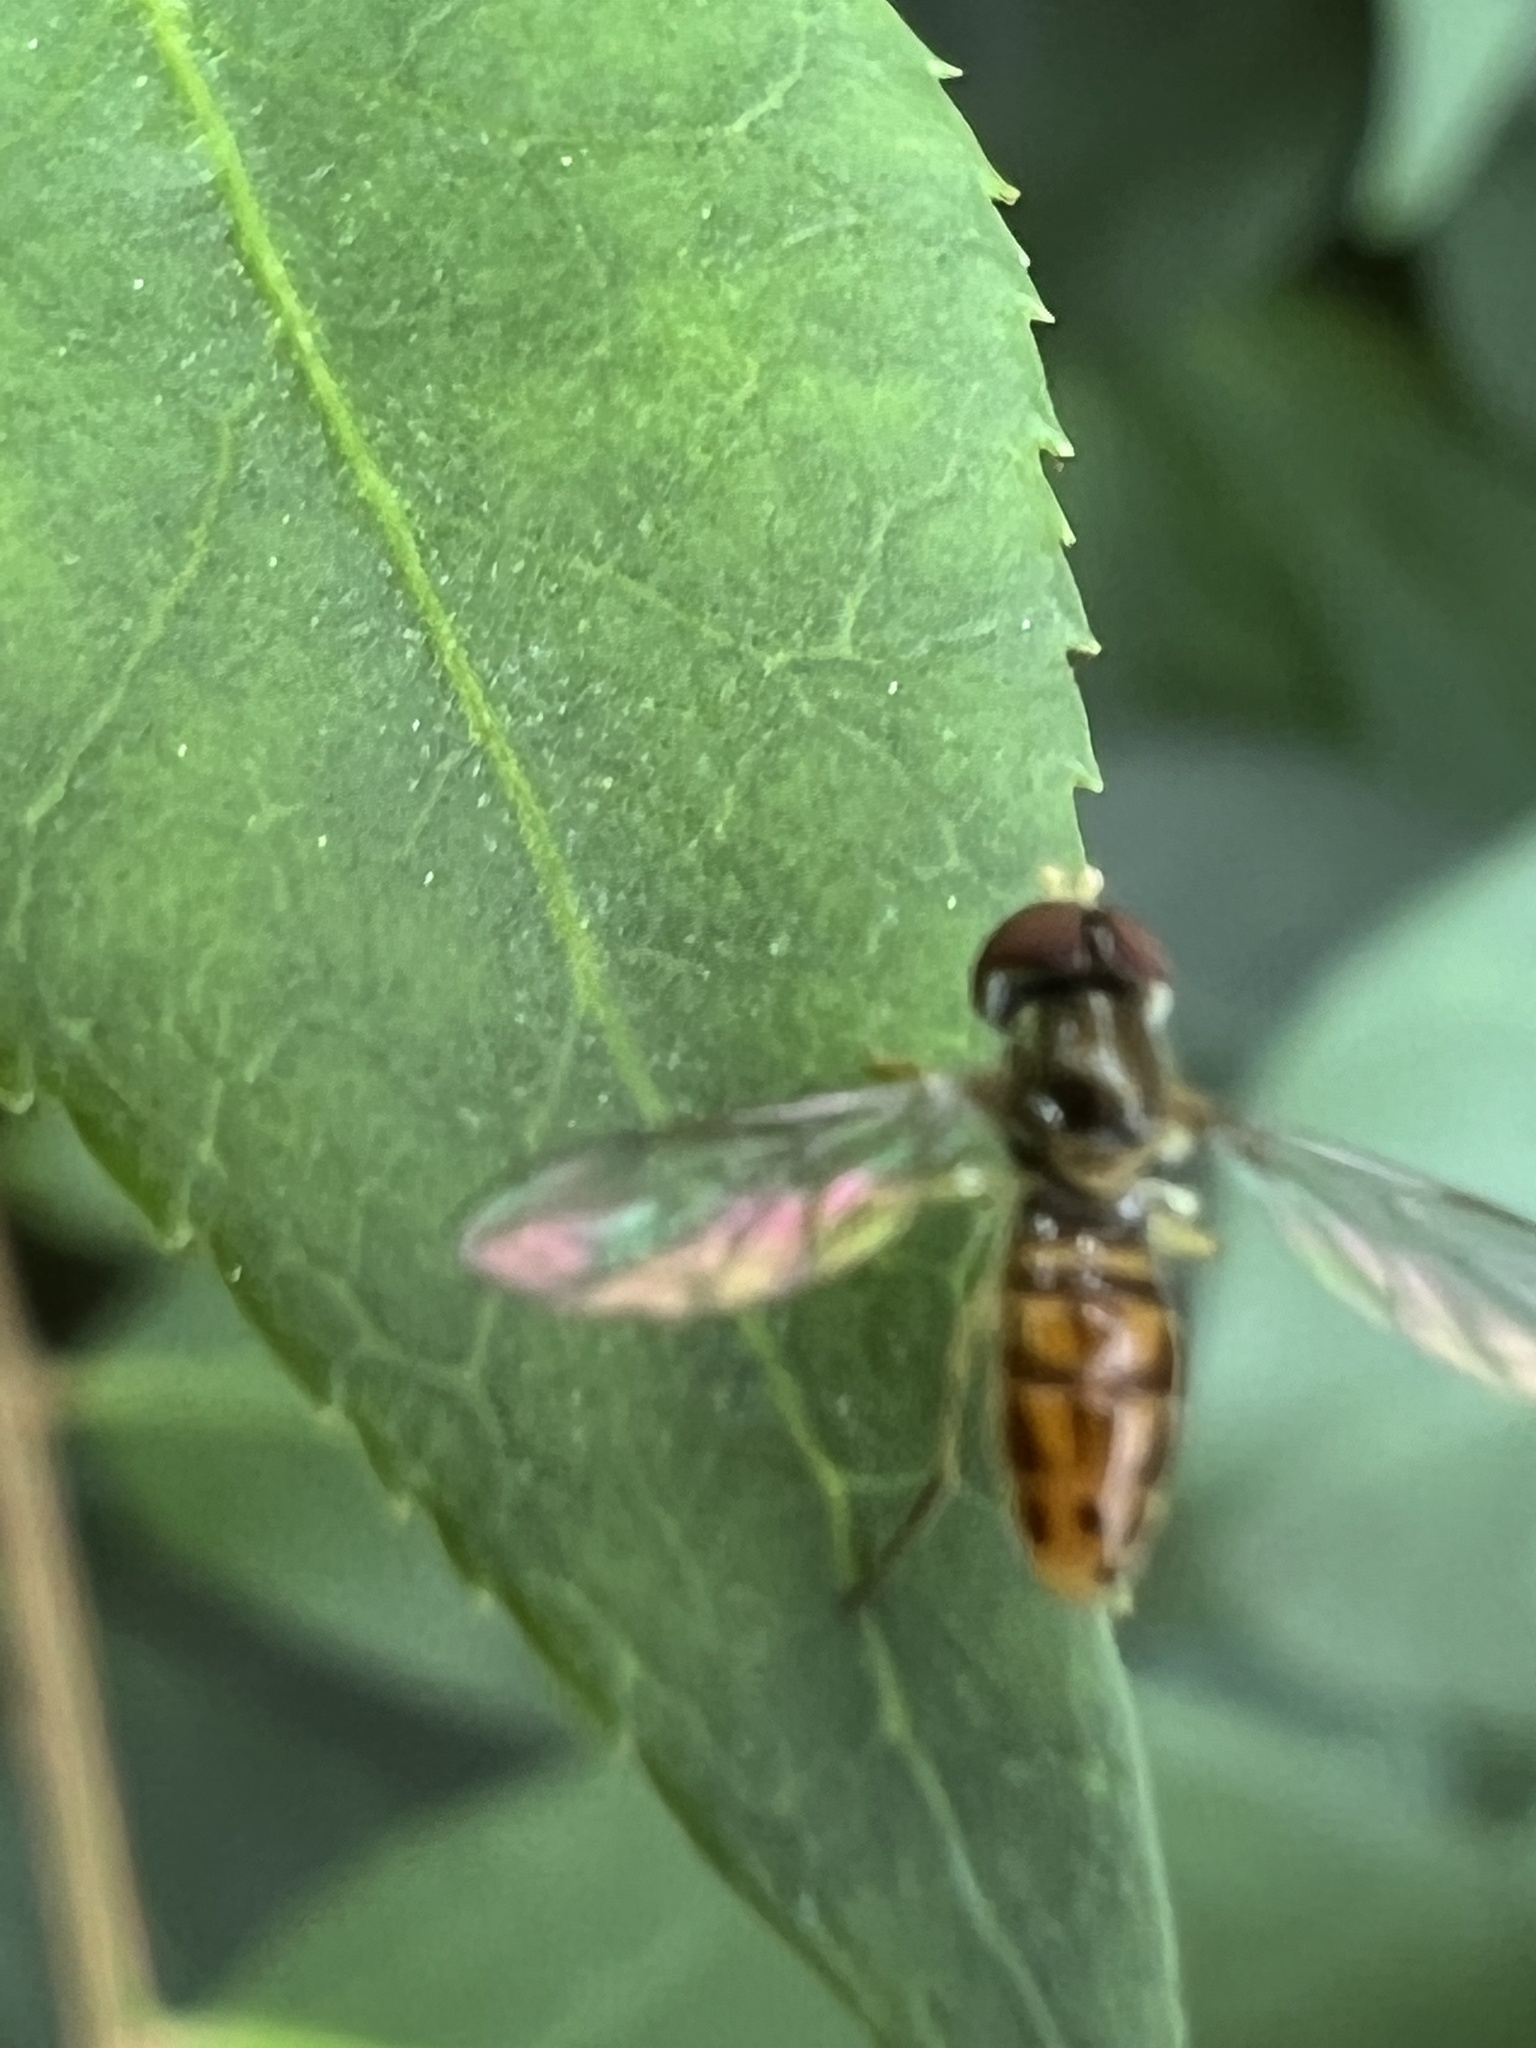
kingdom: Animalia
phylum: Arthropoda
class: Insecta
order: Diptera
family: Syrphidae
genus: Toxomerus
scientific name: Toxomerus marginatus
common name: Syrphid fly
